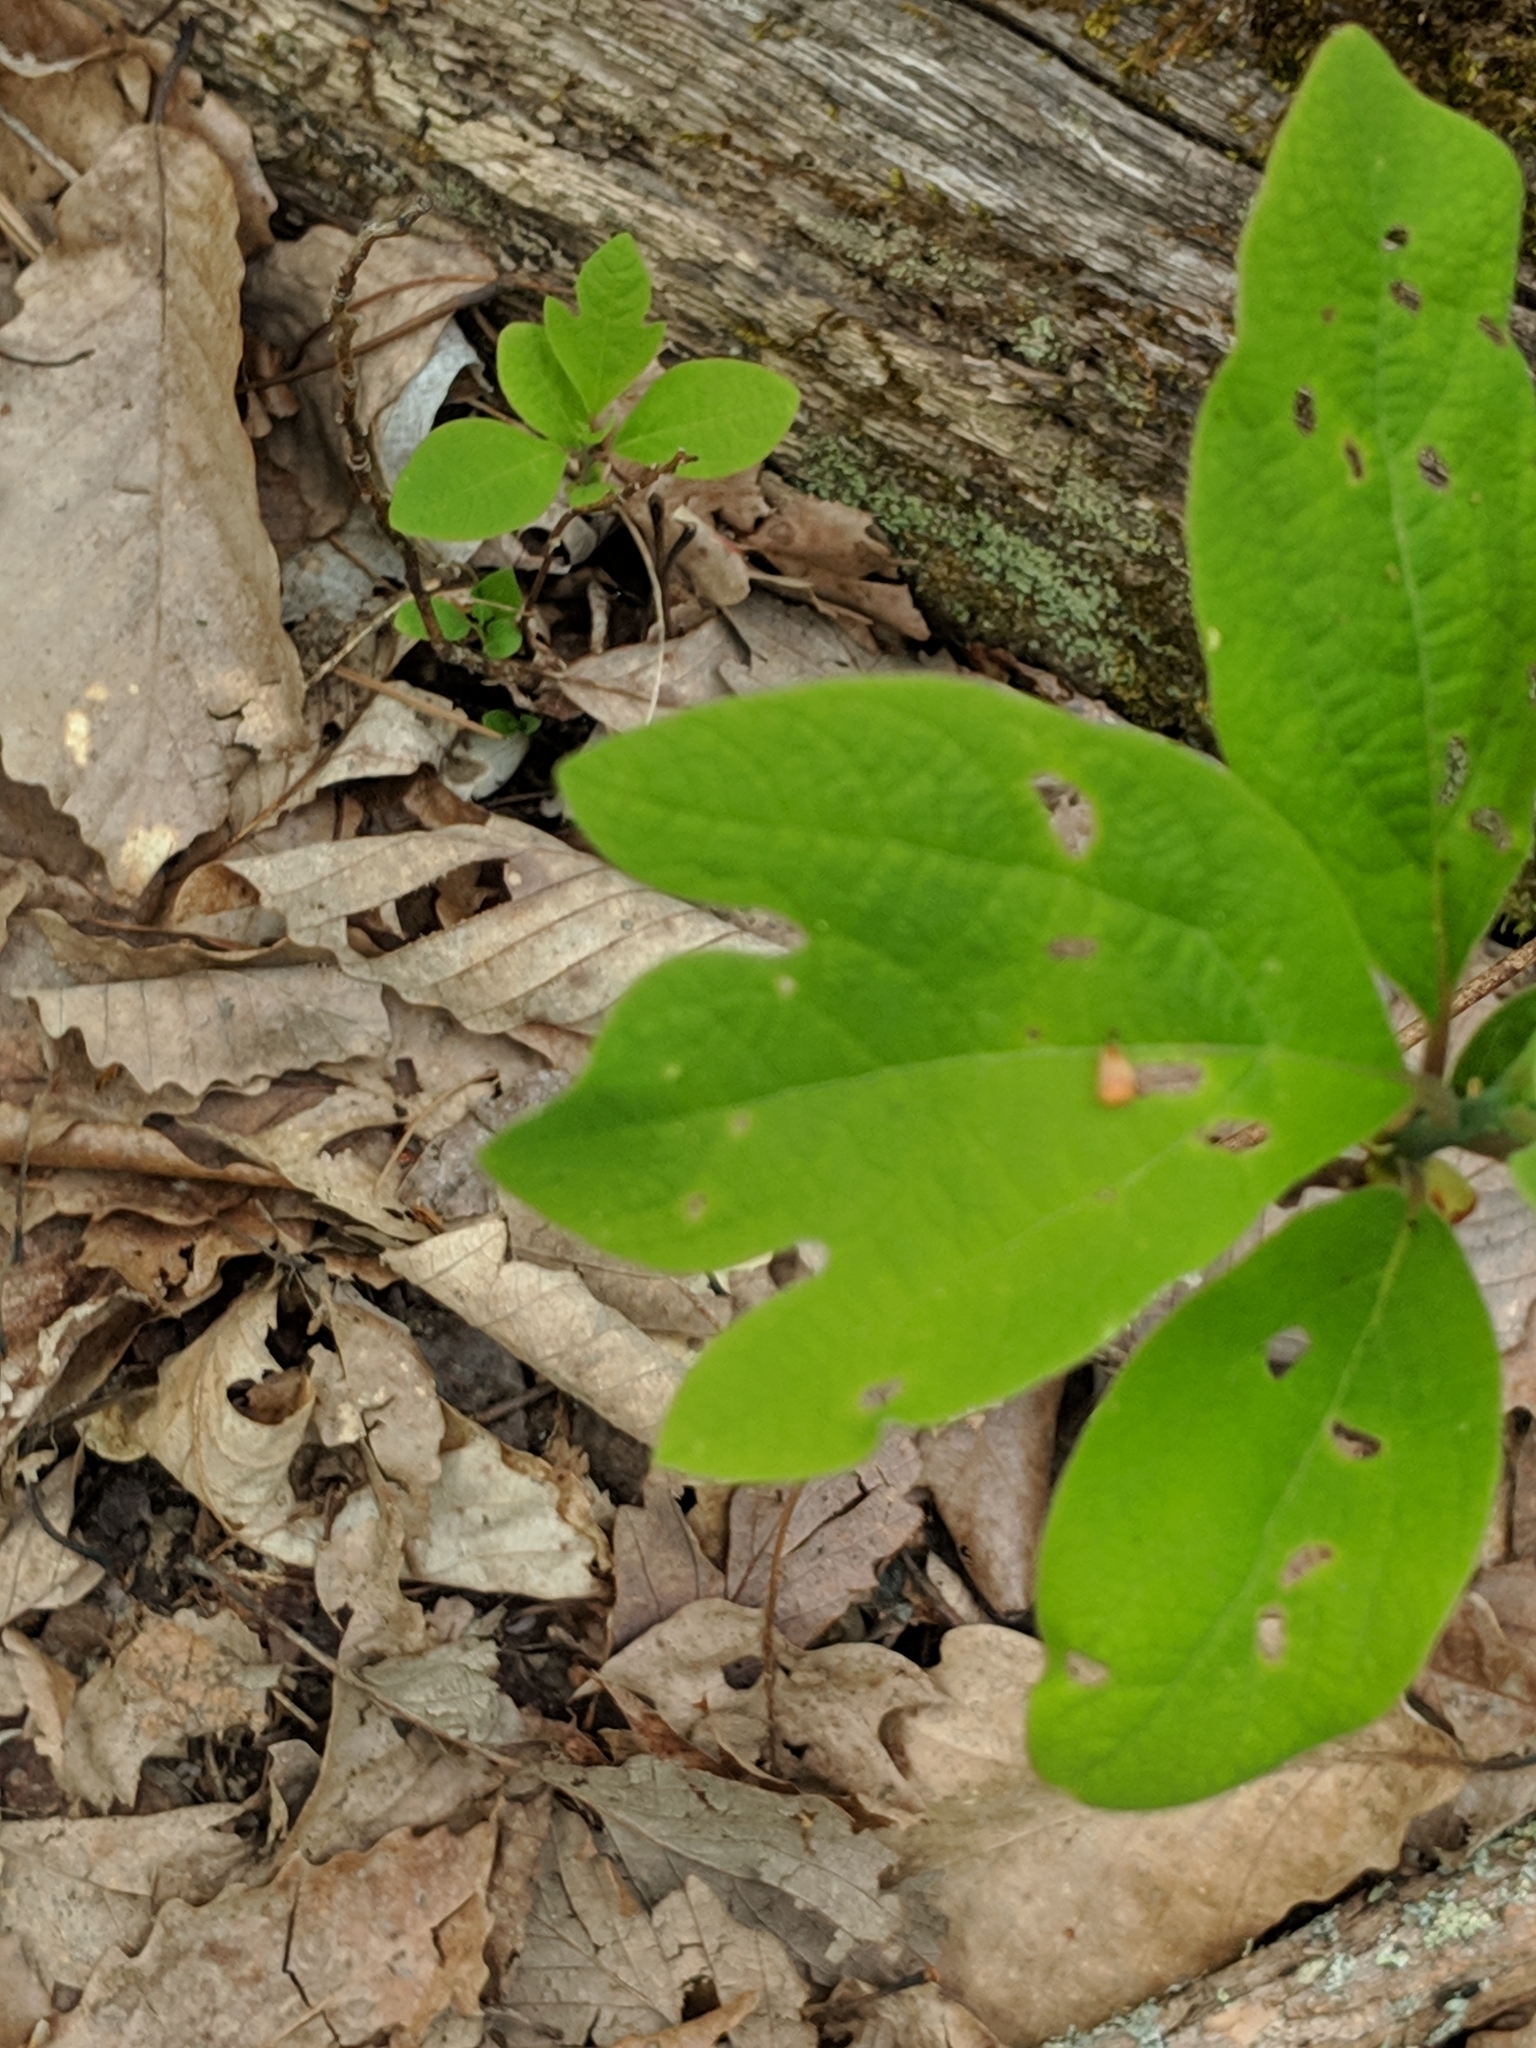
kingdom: Plantae
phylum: Tracheophyta
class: Magnoliopsida
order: Laurales
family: Lauraceae
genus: Sassafras
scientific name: Sassafras albidum
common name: Sassafras
